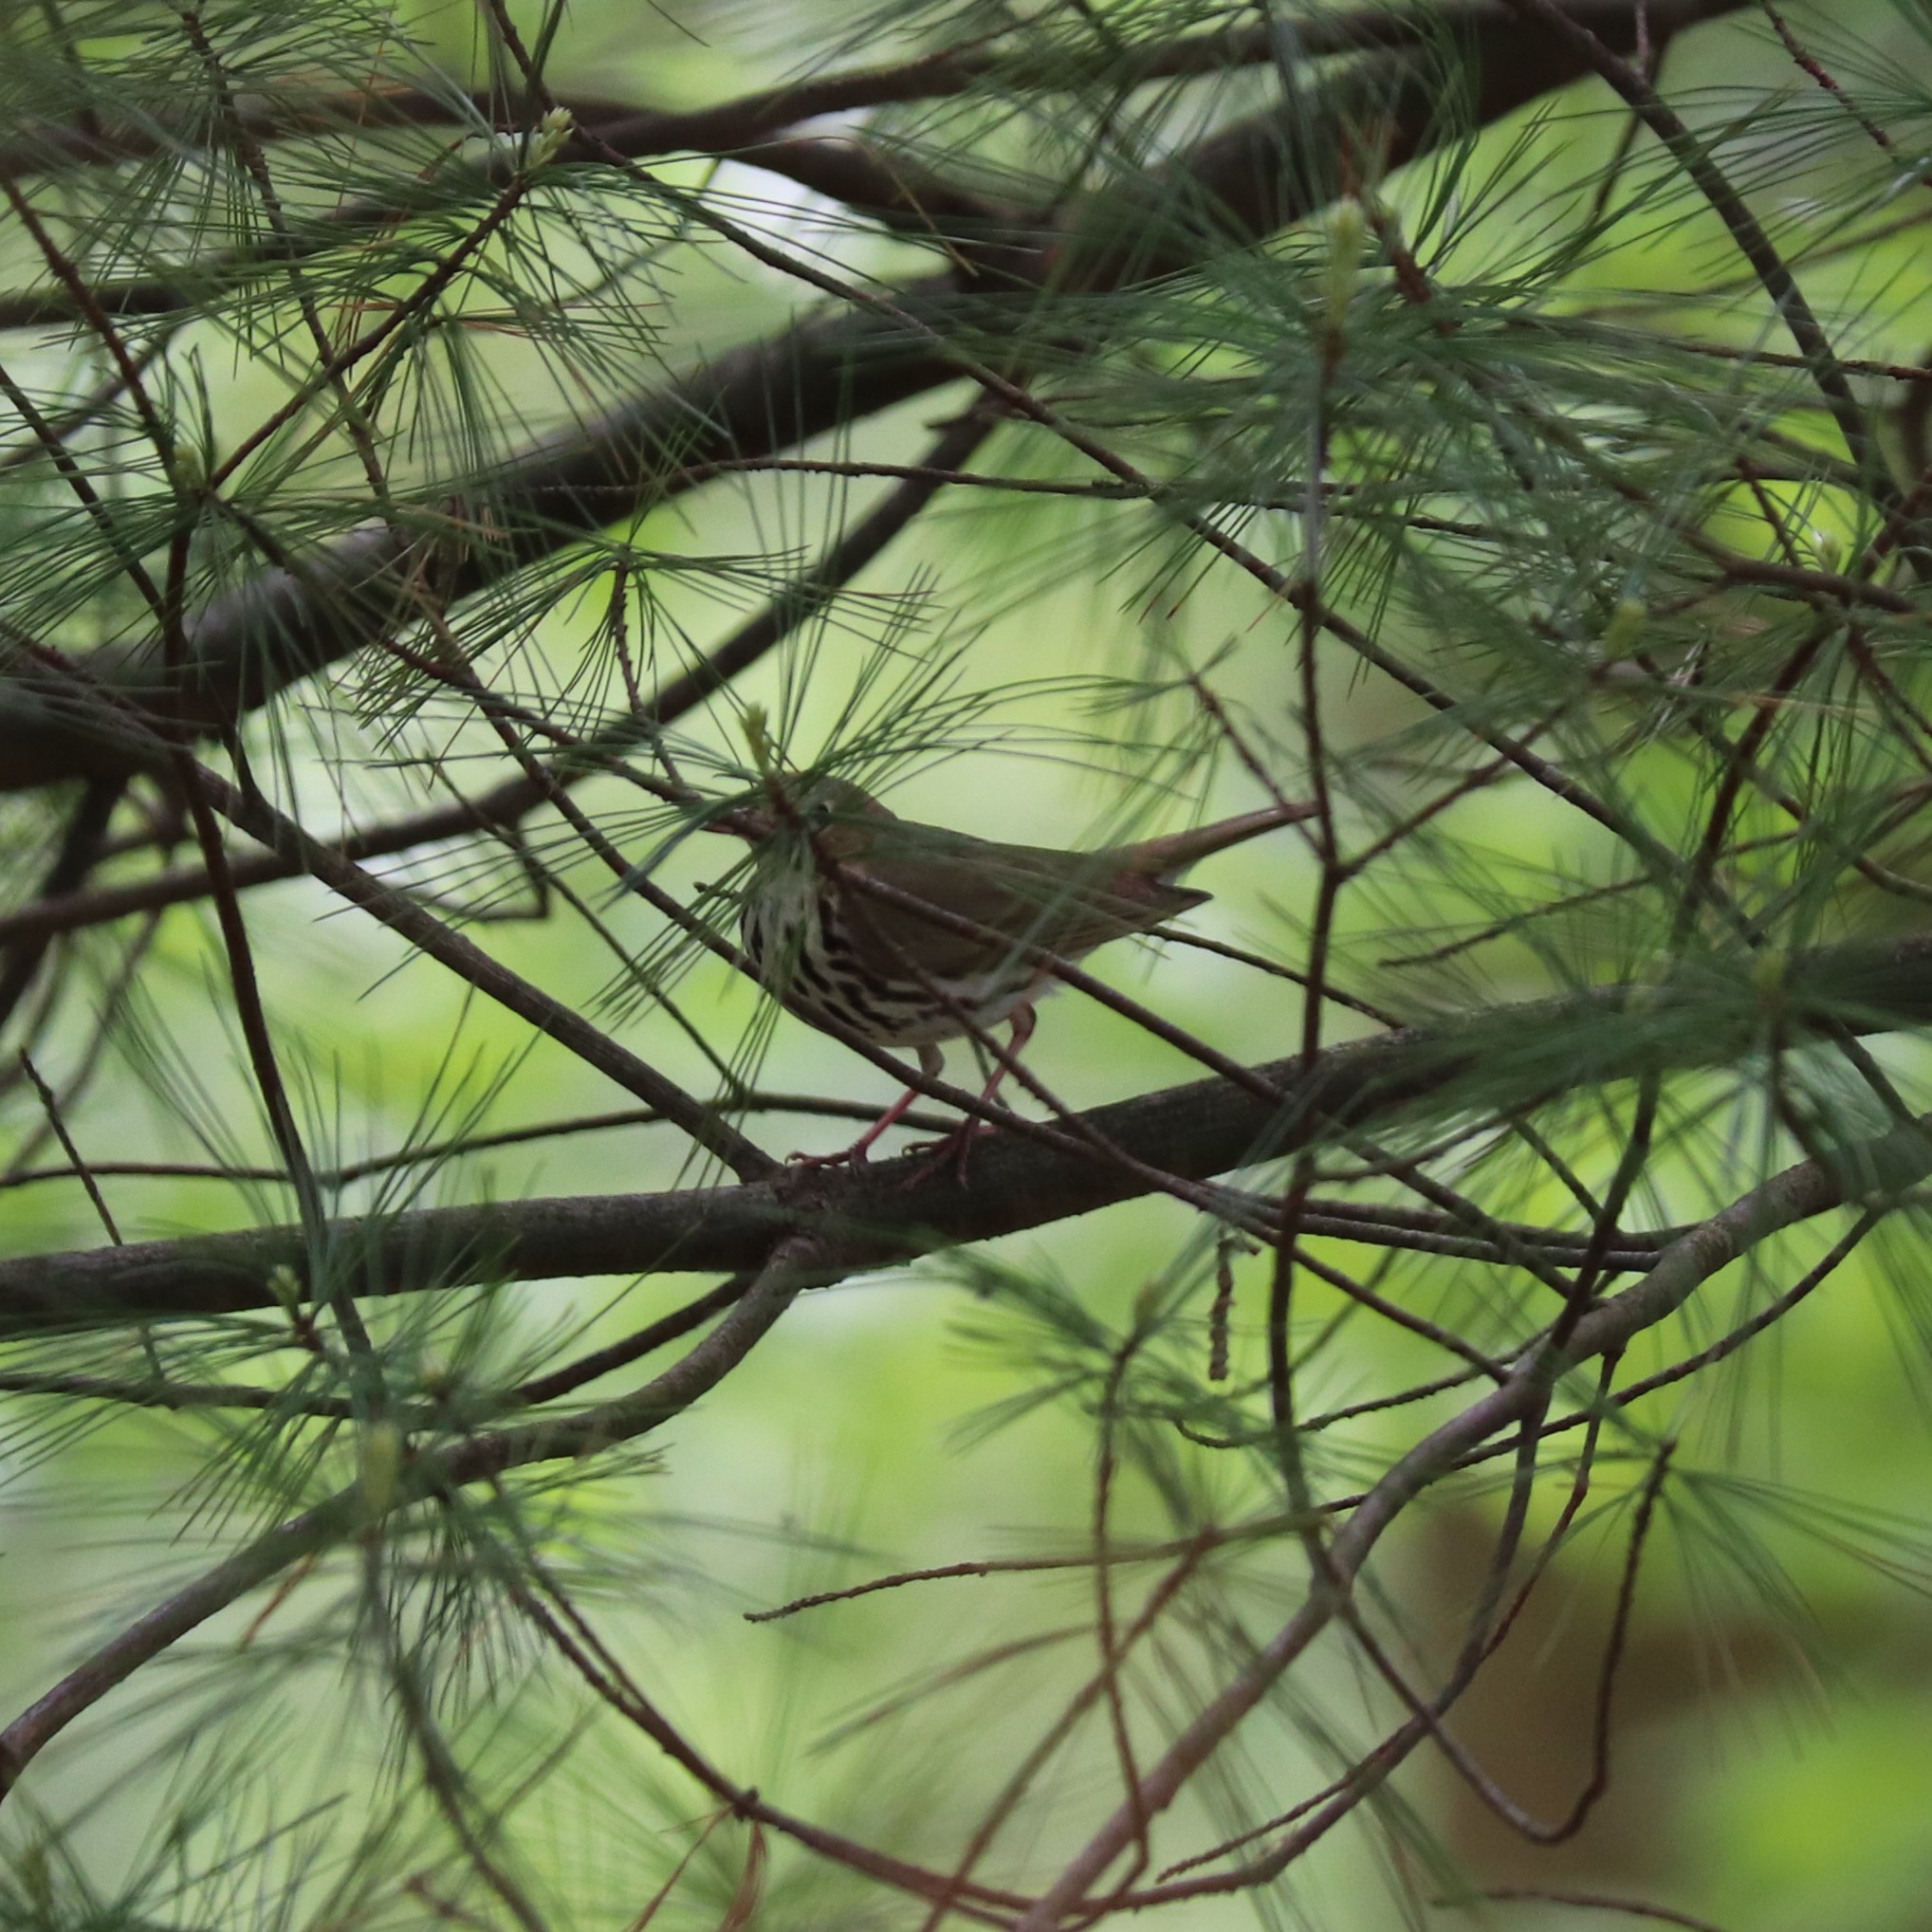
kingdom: Animalia
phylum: Chordata
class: Aves
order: Passeriformes
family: Parulidae
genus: Seiurus
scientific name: Seiurus aurocapilla
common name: Ovenbird
